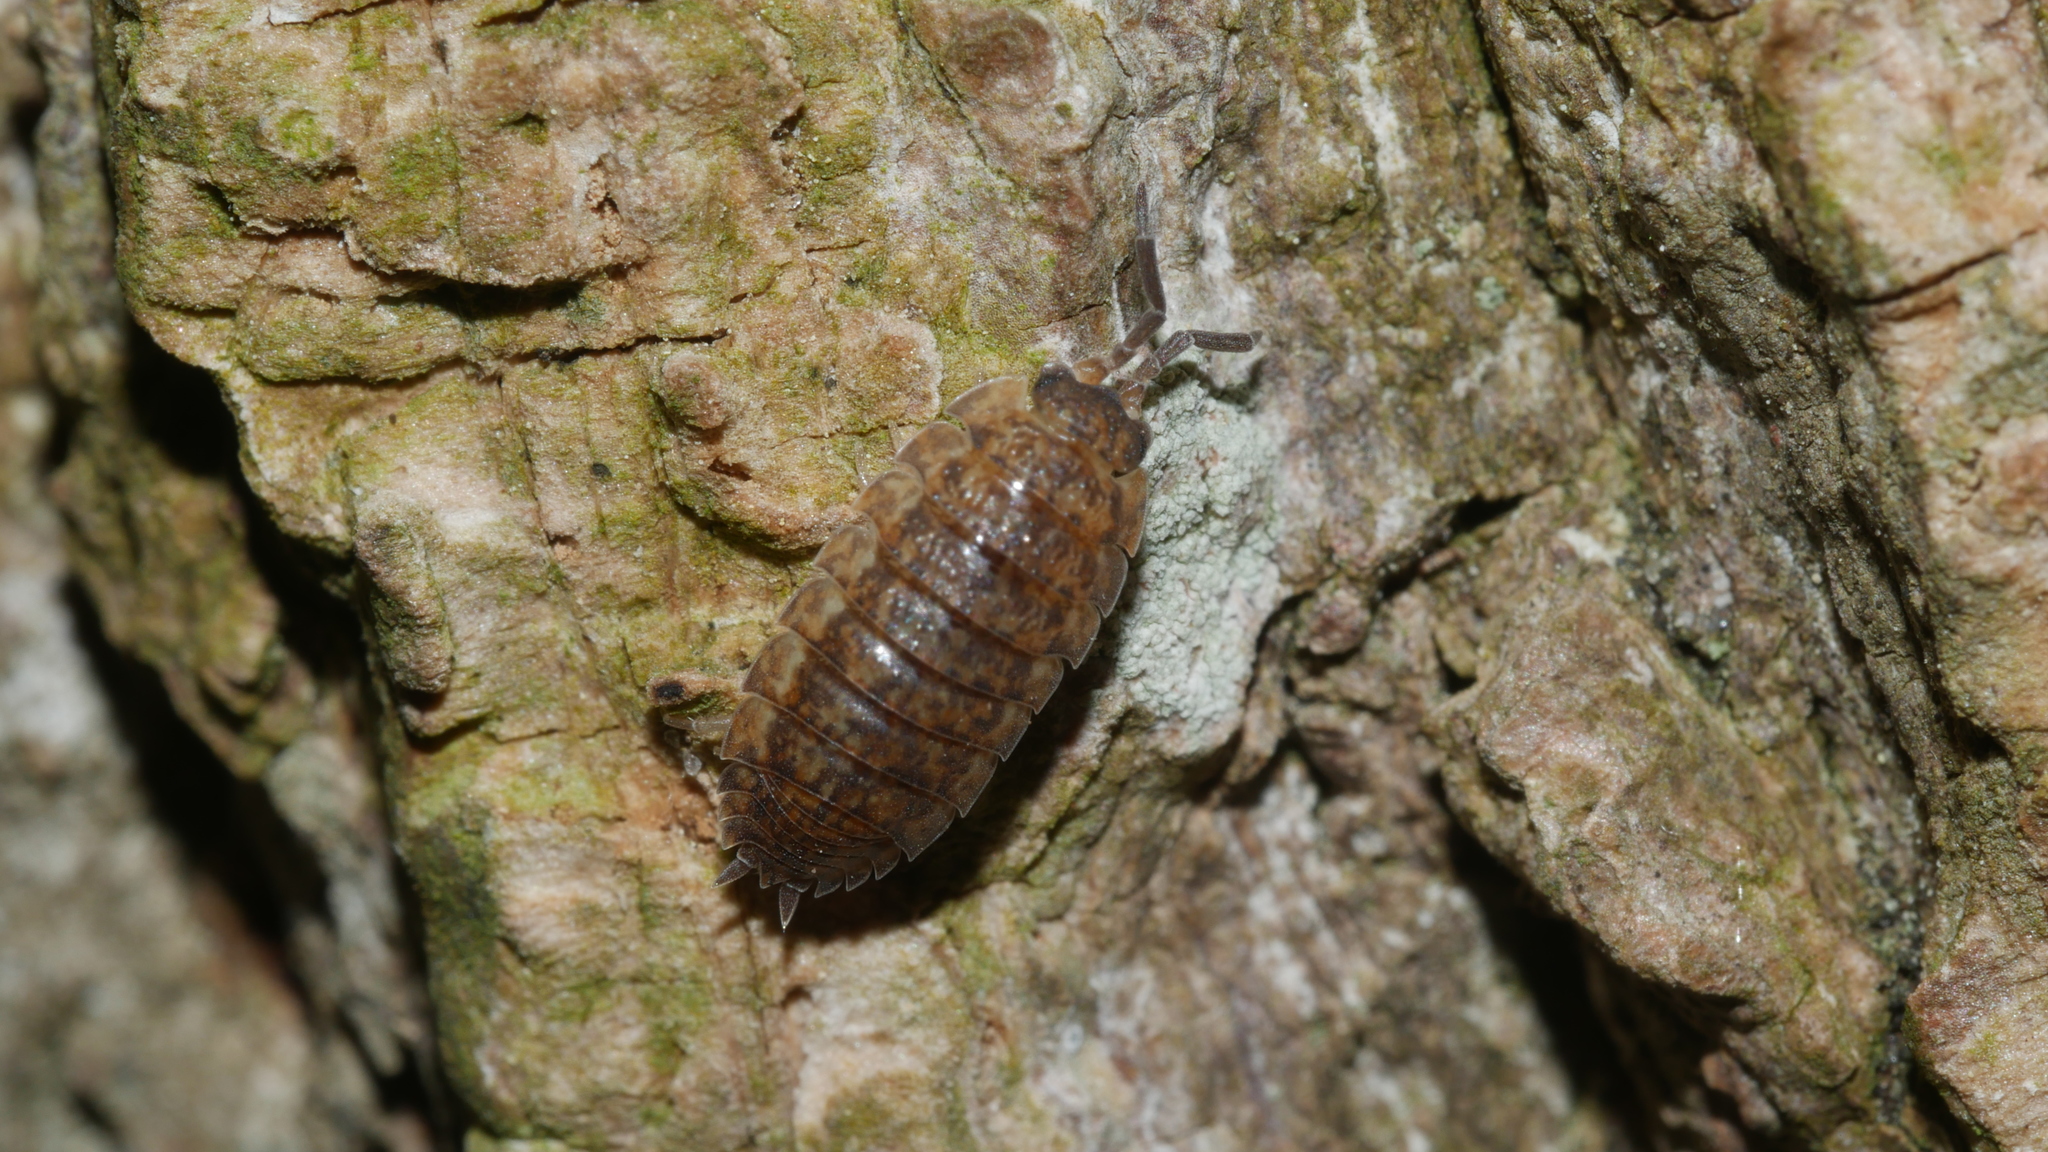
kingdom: Animalia
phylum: Arthropoda
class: Malacostraca
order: Isopoda
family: Porcellionidae
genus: Porcellio
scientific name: Porcellio scaber
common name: Common rough woodlouse
